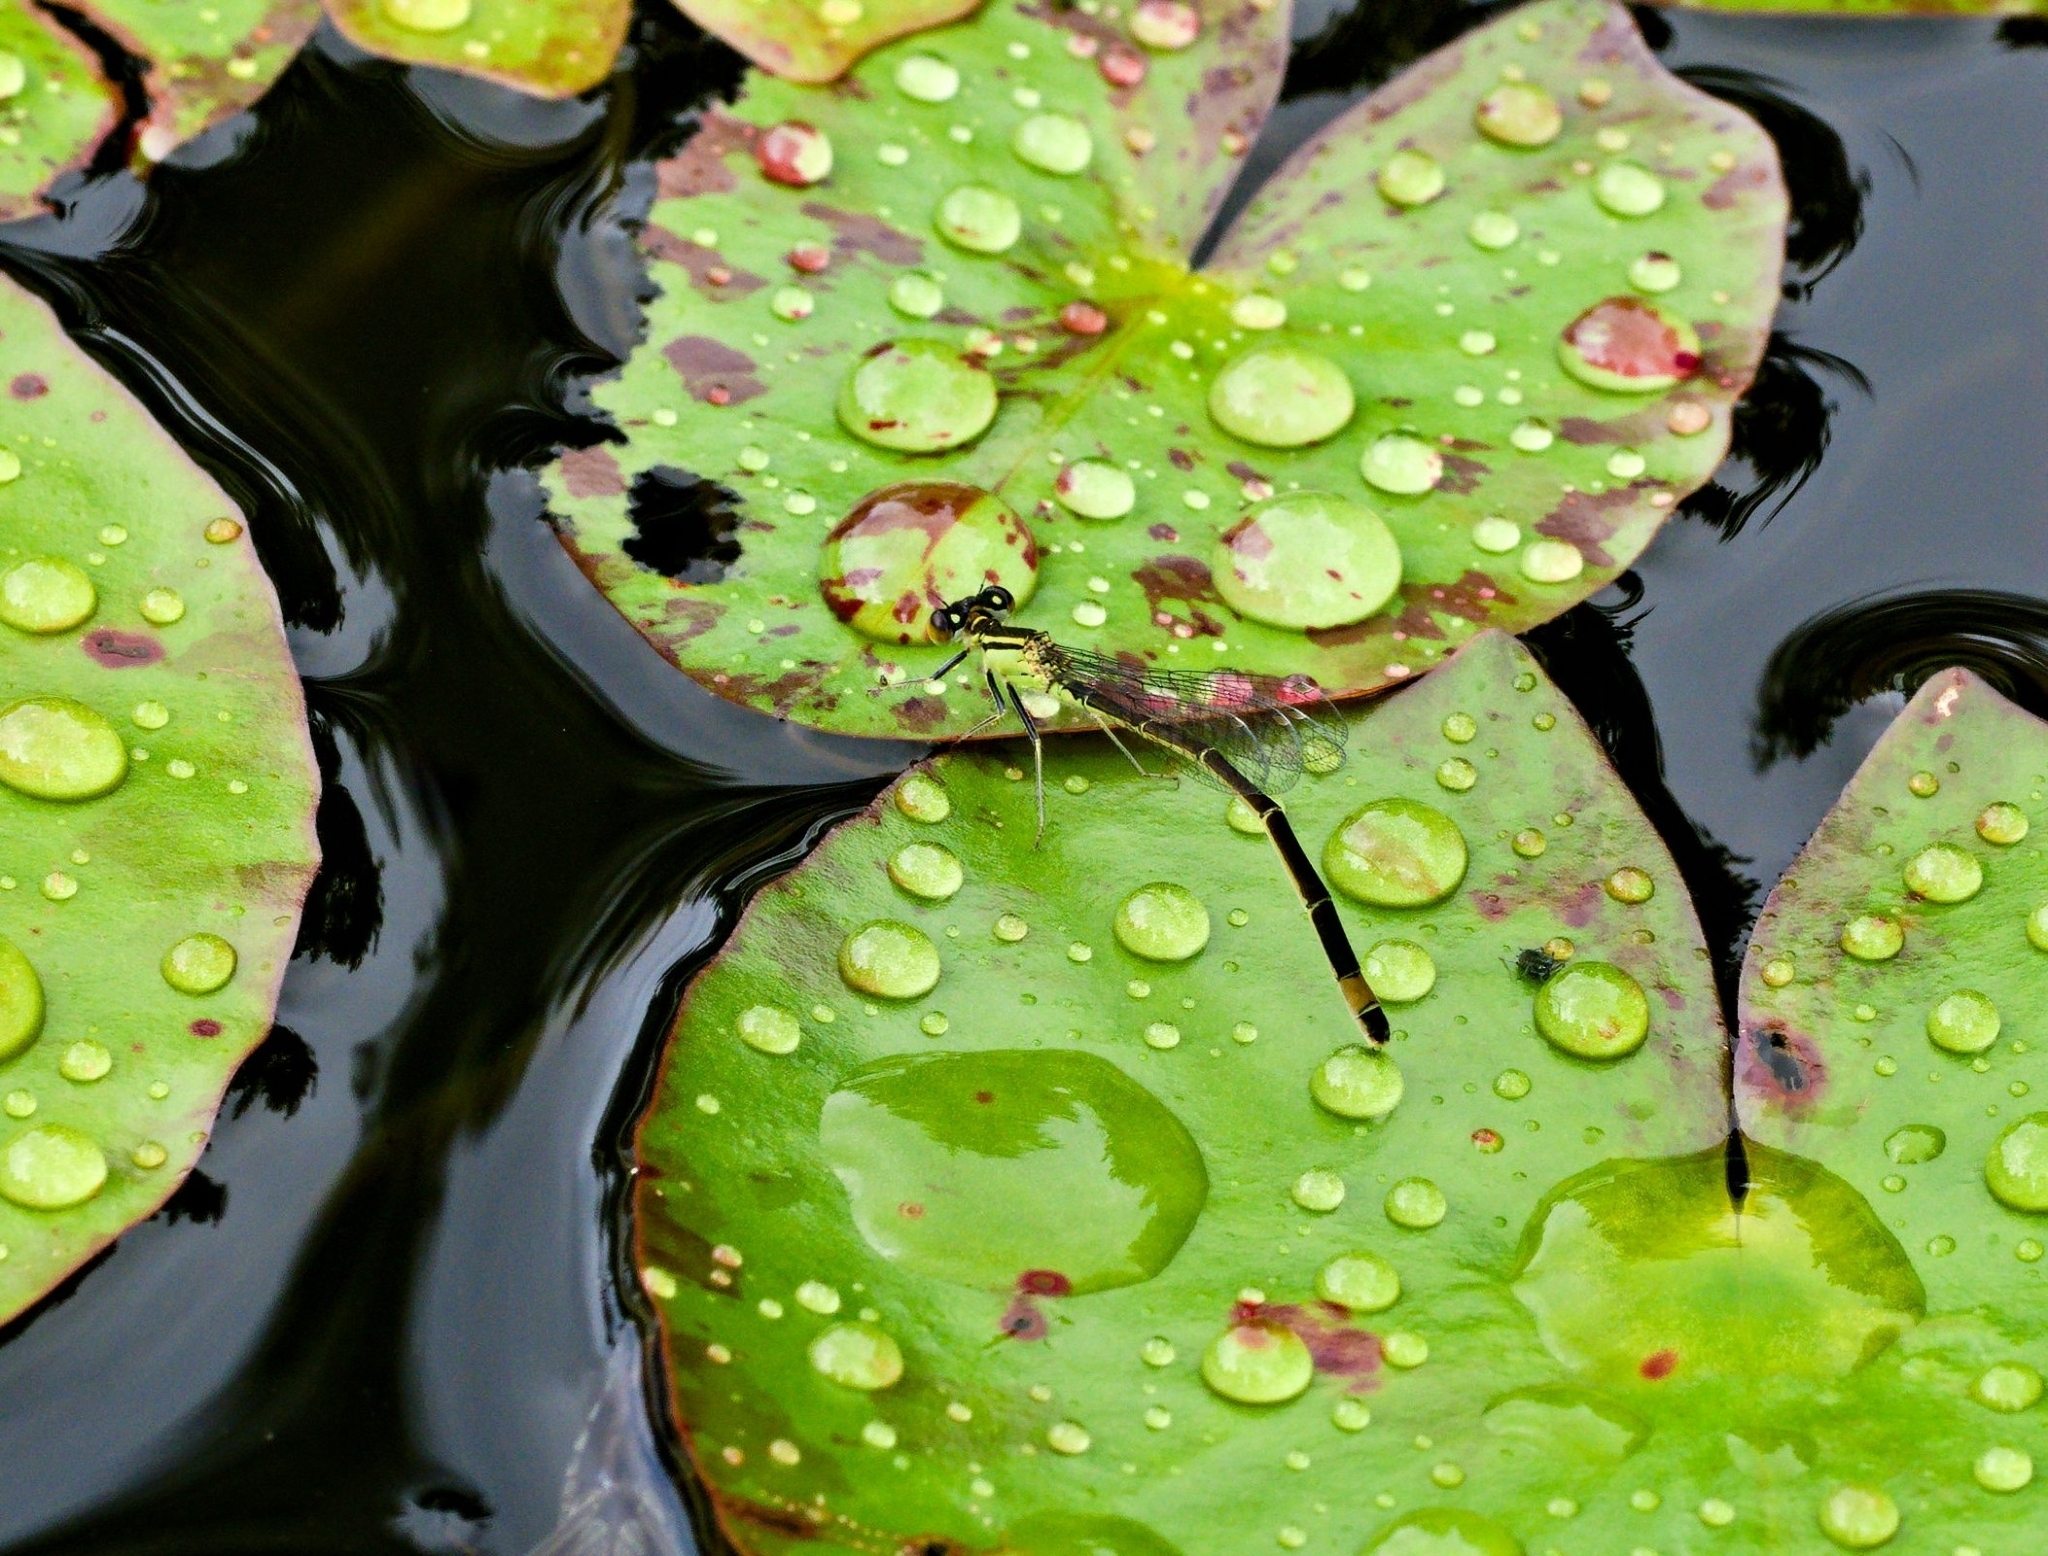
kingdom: Animalia
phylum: Arthropoda
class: Insecta
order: Odonata
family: Coenagrionidae
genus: Ischnura
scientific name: Ischnura elegans
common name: Blue-tailed damselfly
